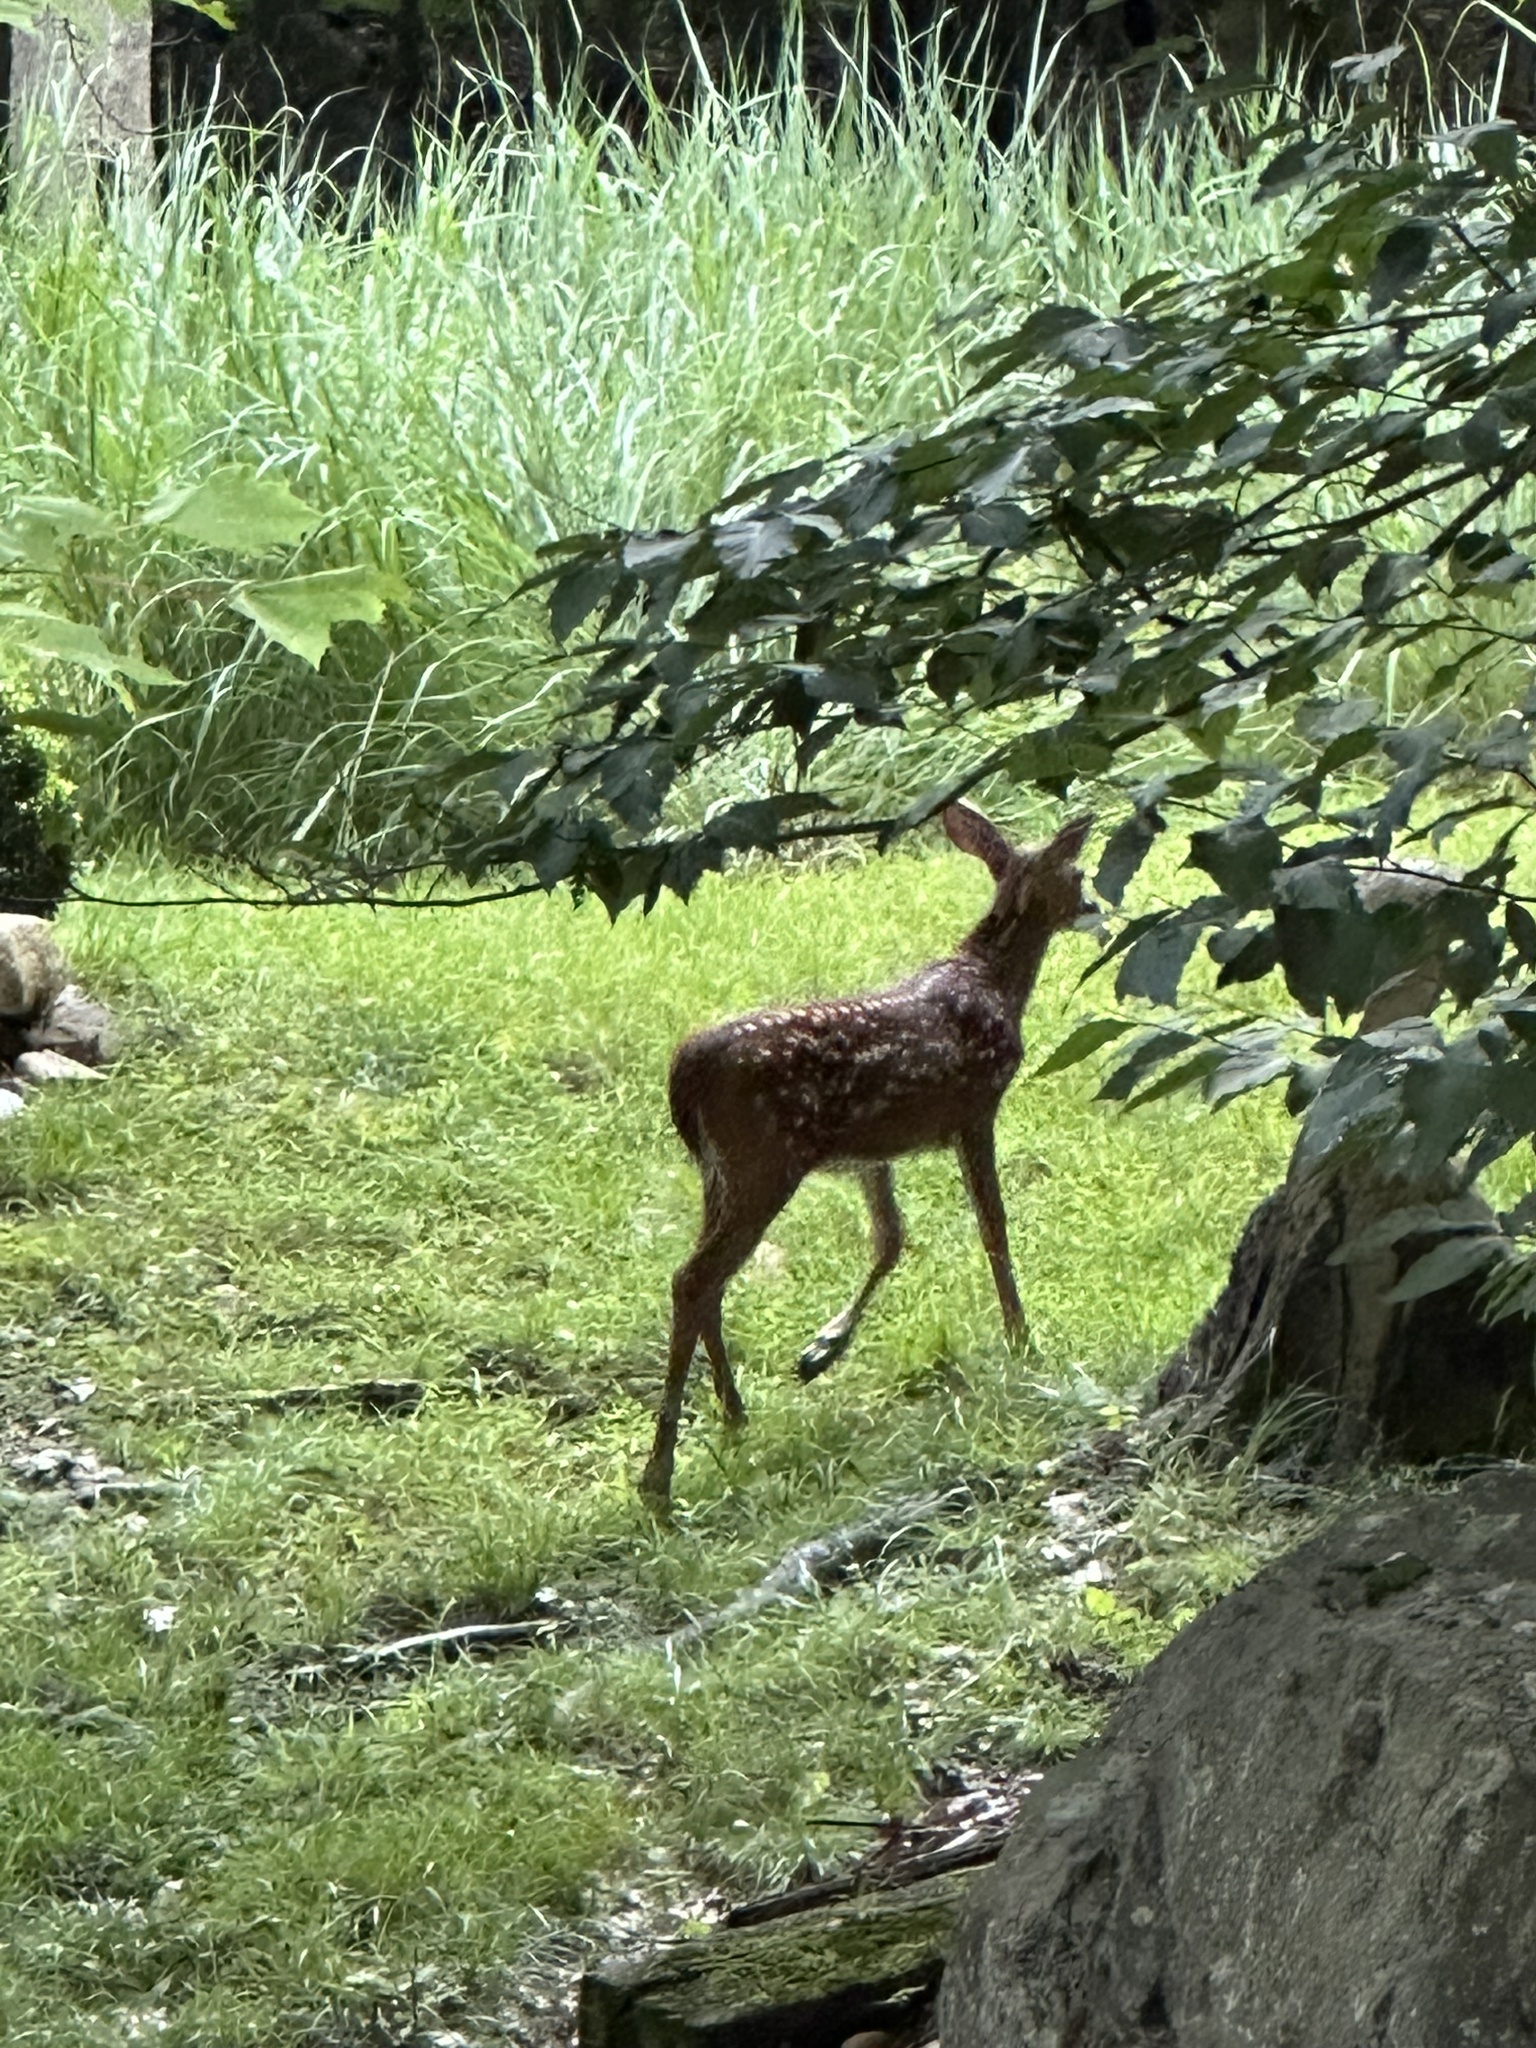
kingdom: Animalia
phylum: Chordata
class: Mammalia
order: Artiodactyla
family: Cervidae
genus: Odocoileus
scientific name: Odocoileus virginianus
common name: White-tailed deer
